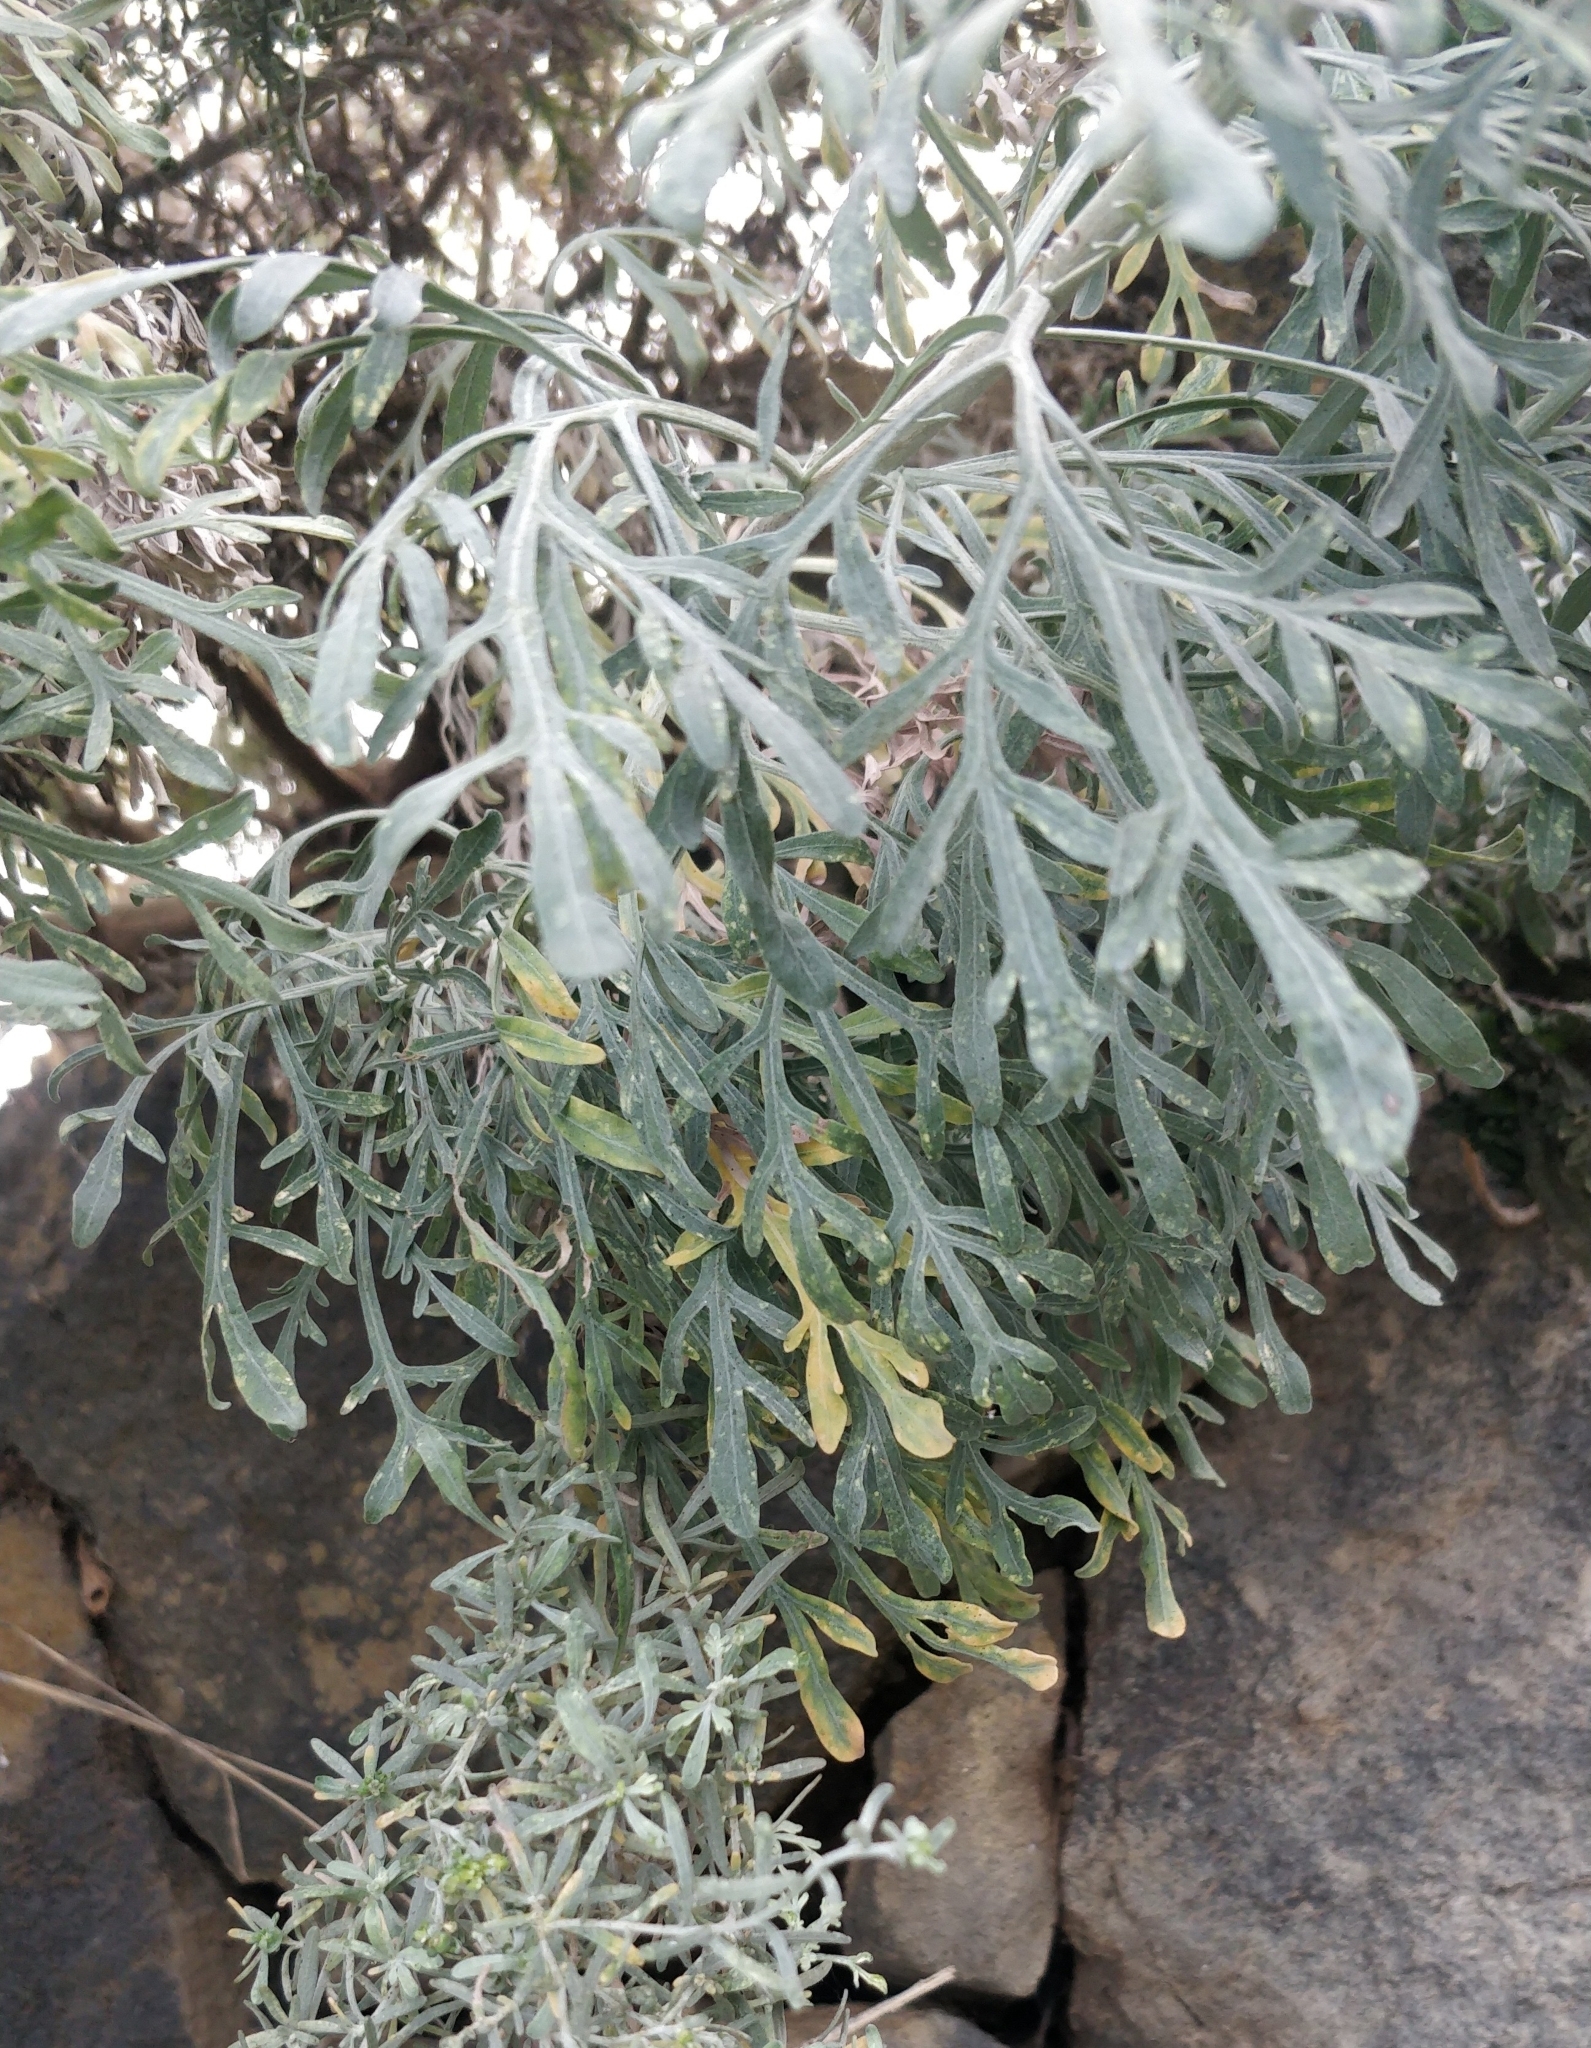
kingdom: Plantae
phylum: Tracheophyta
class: Magnoliopsida
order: Asterales
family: Asteraceae
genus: Artemisia
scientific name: Artemisia thuscula
